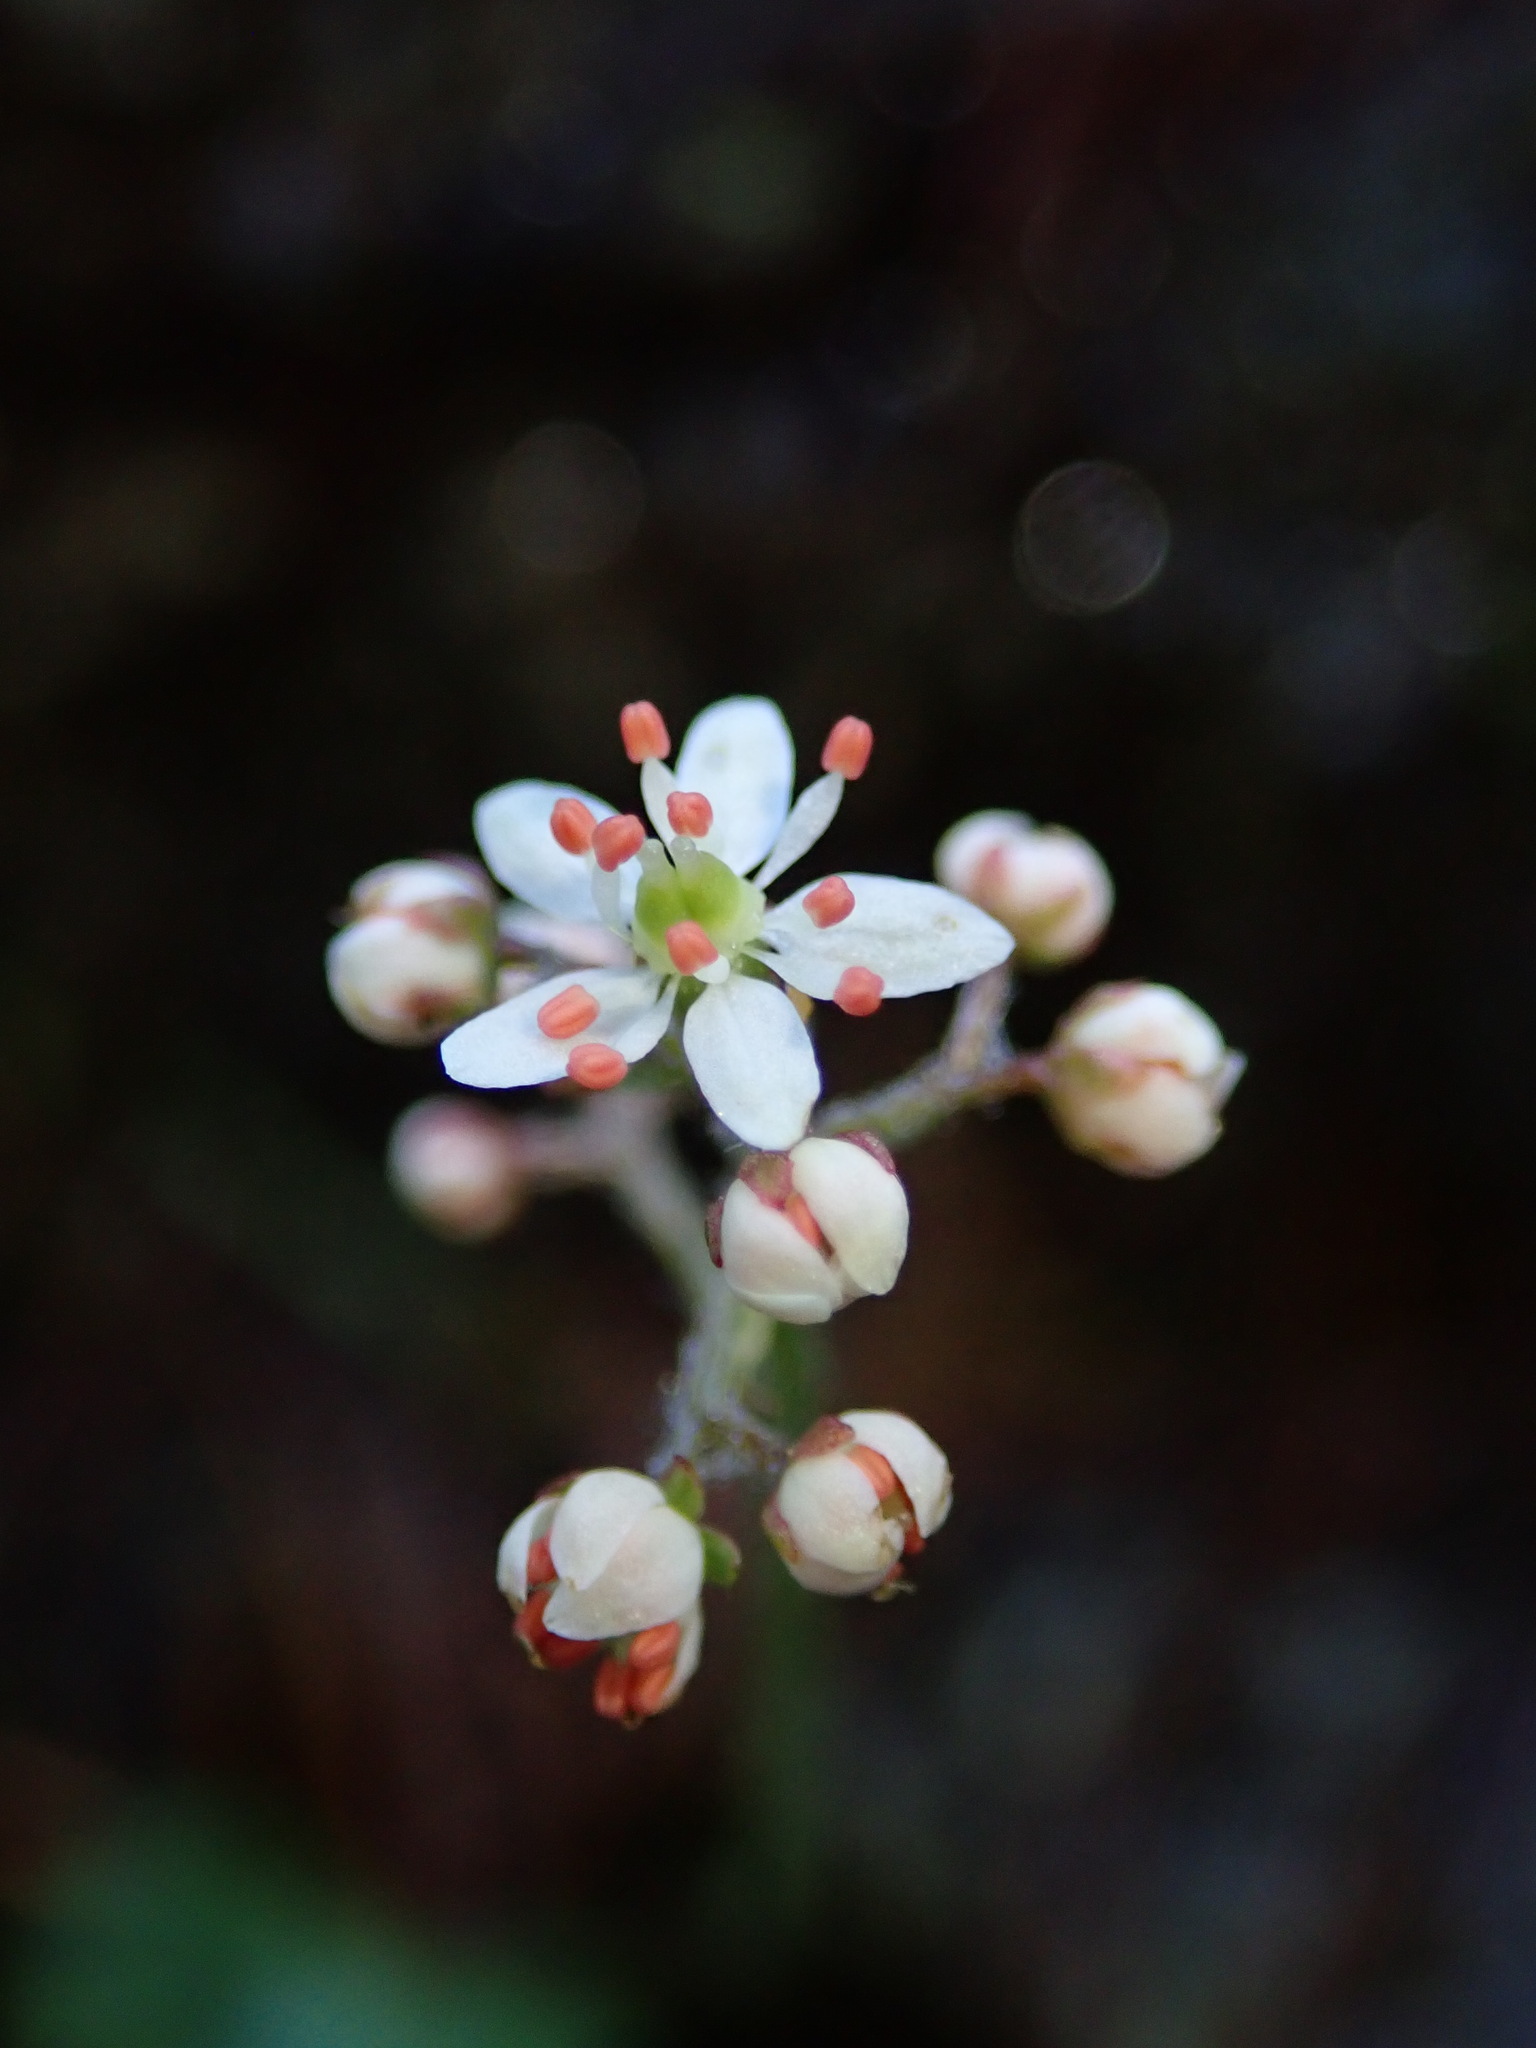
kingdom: Plantae
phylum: Tracheophyta
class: Magnoliopsida
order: Saxifragales
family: Saxifragaceae
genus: Micranthes
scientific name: Micranthes nelsoniana
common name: Nelson's saxifrage
